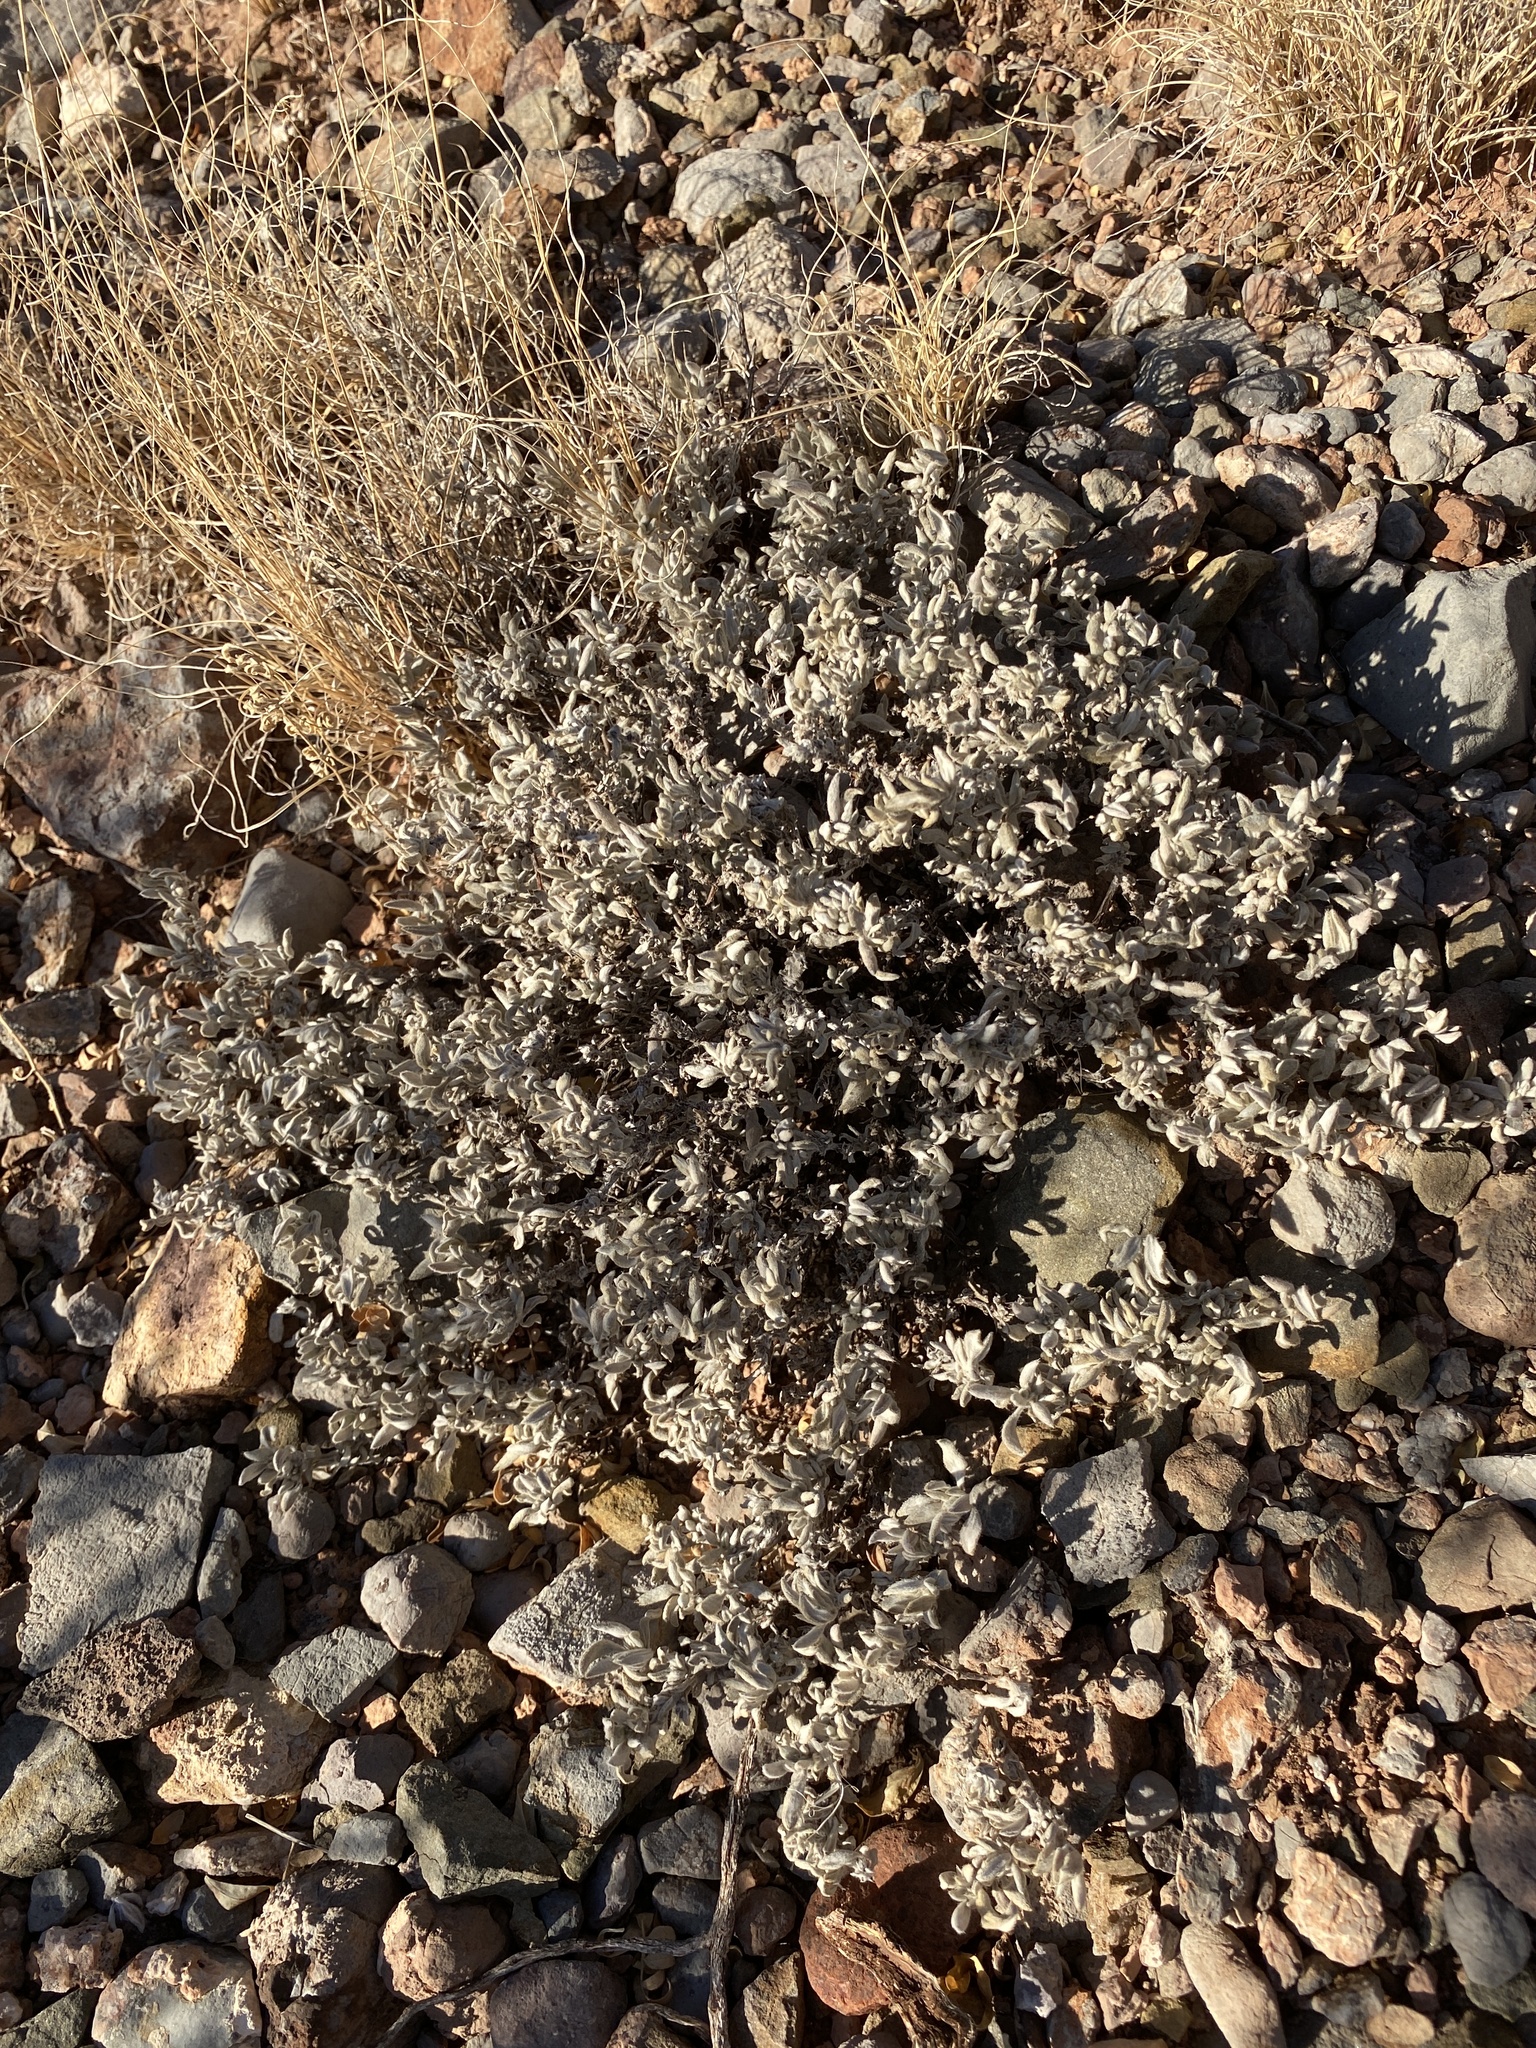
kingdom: Plantae
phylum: Tracheophyta
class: Magnoliopsida
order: Boraginales
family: Ehretiaceae
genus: Tiquilia
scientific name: Tiquilia canescens
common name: Hairy tiquilia
